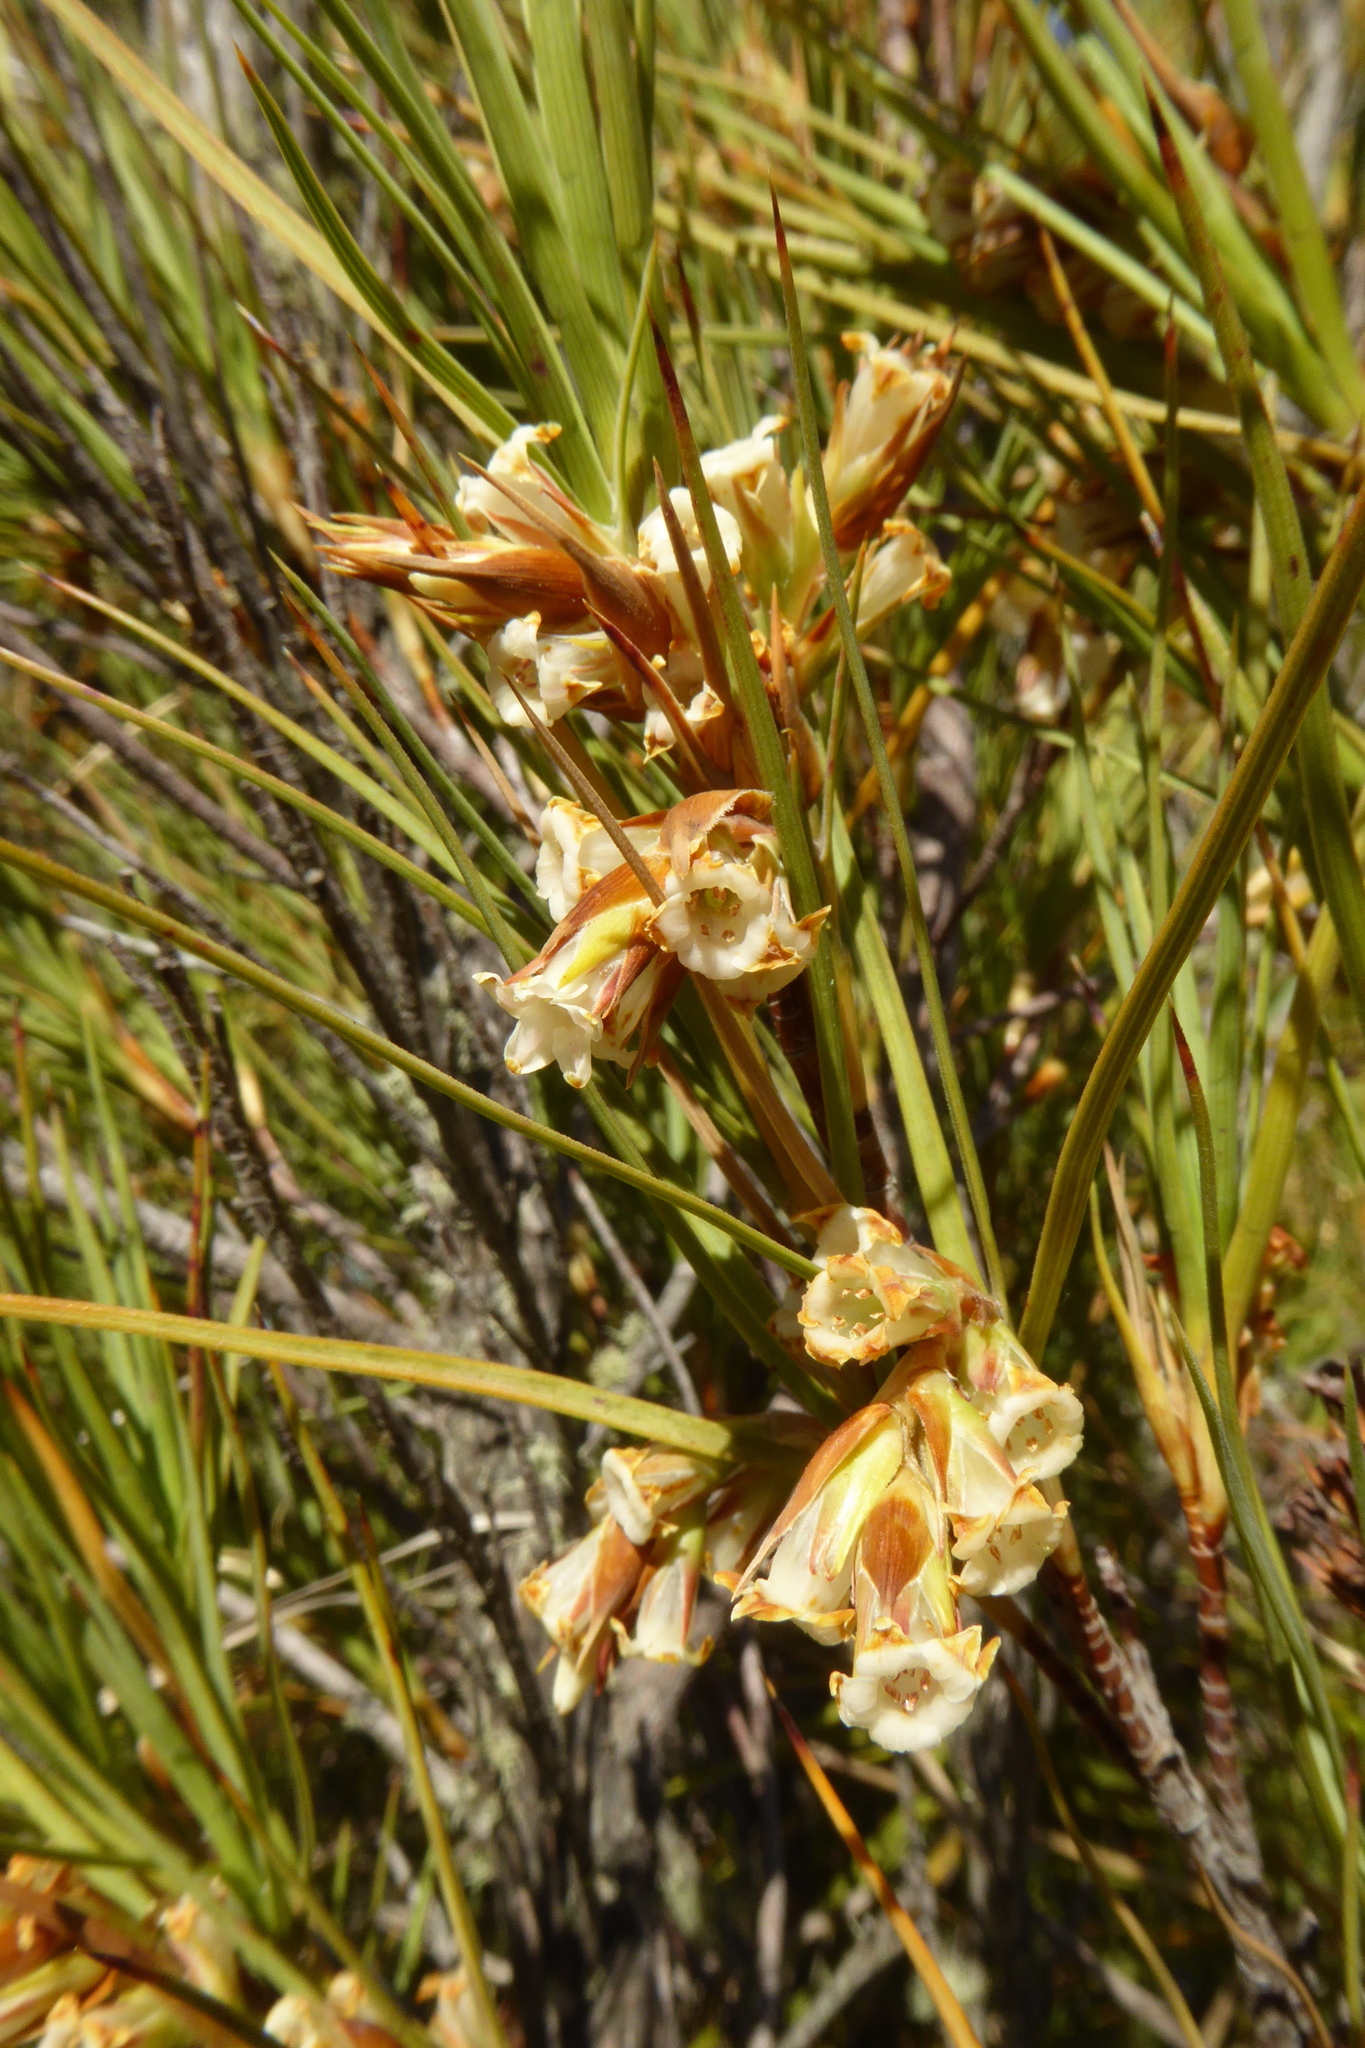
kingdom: Plantae
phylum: Tracheophyta
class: Magnoliopsida
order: Ericales
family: Ericaceae
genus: Dracophyllum
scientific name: Dracophyllum longifolium
